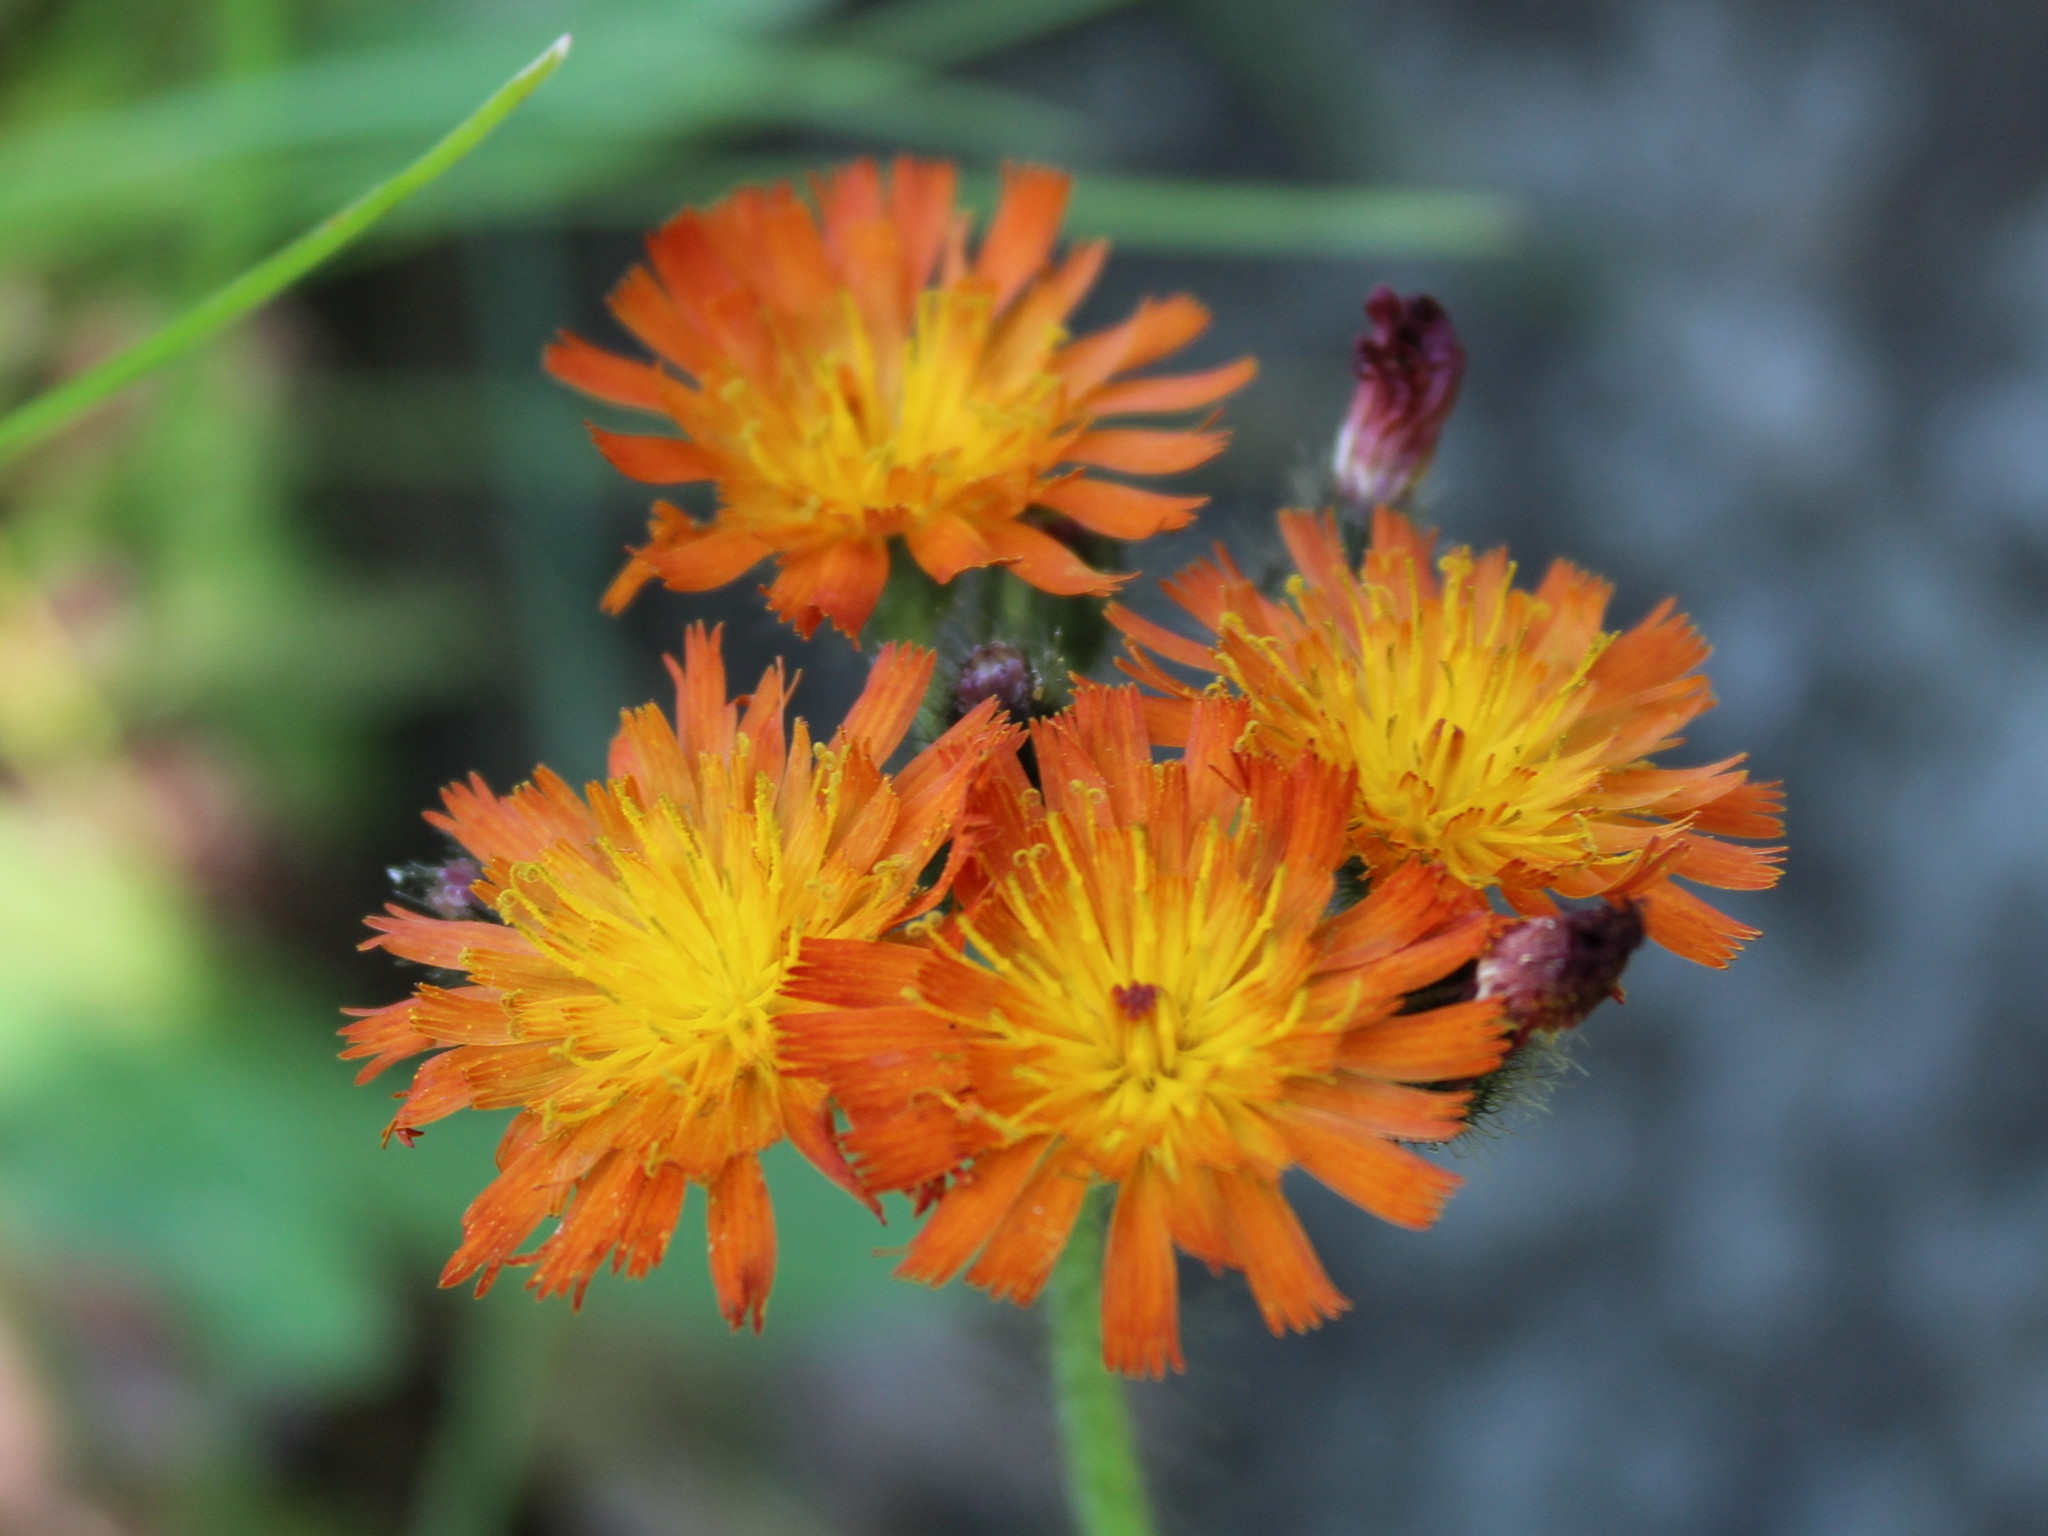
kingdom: Plantae
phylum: Tracheophyta
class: Magnoliopsida
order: Asterales
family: Asteraceae
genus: Pilosella
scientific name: Pilosella aurantiaca
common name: Fox-and-cubs
